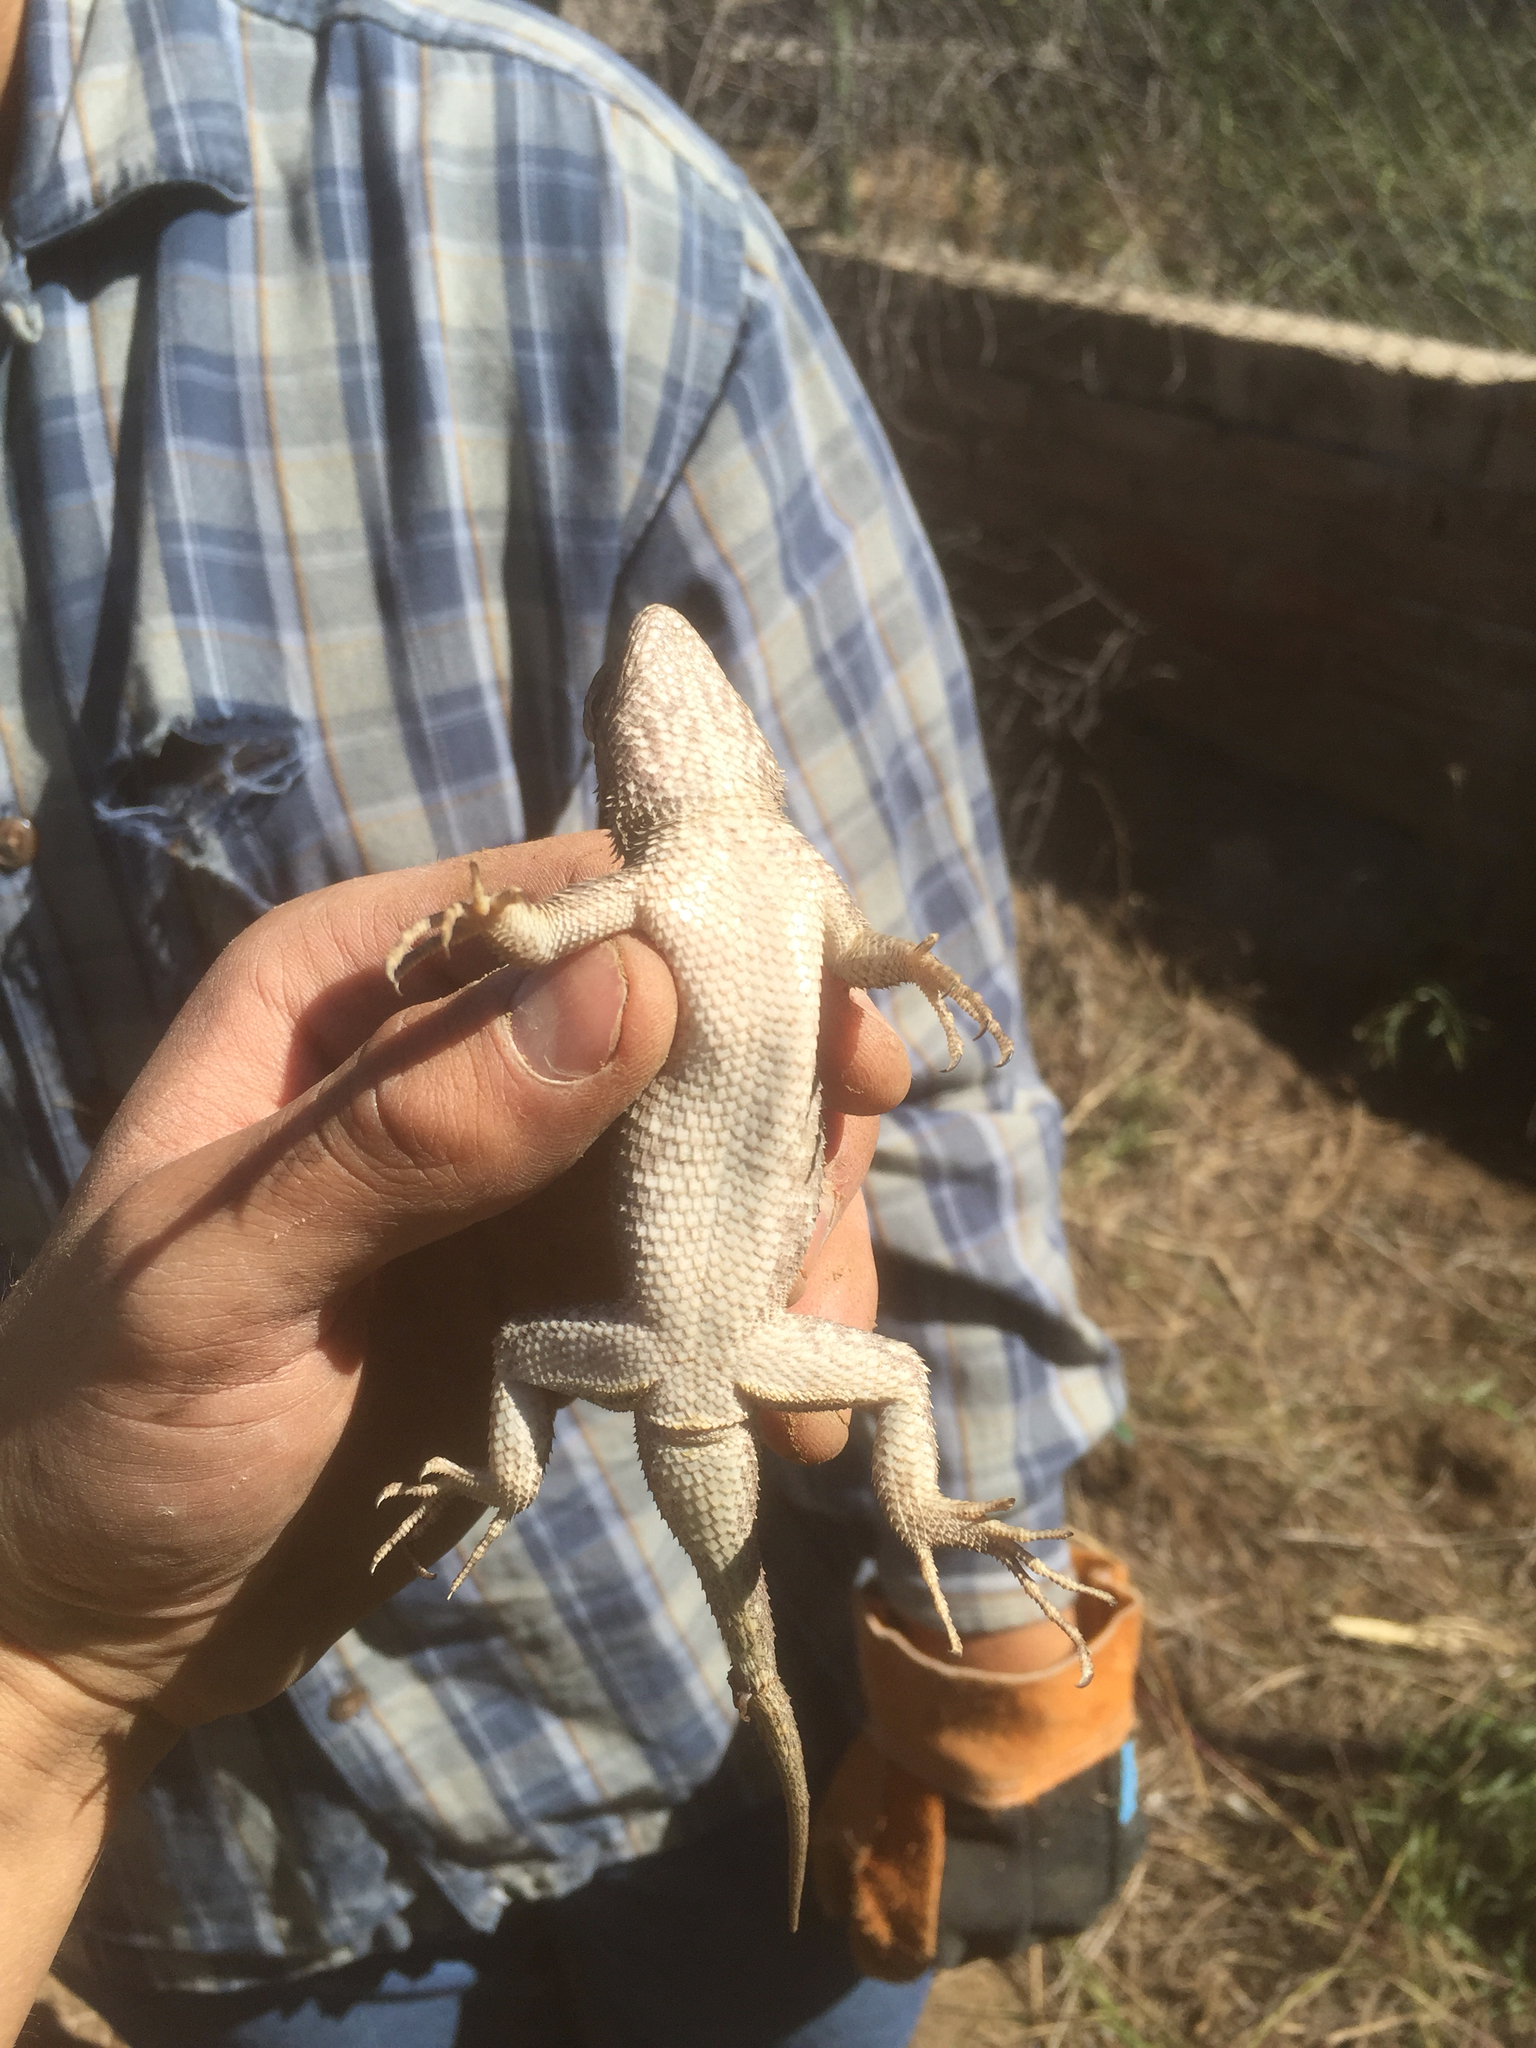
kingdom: Animalia
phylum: Chordata
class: Squamata
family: Phrynosomatidae
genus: Sceloporus
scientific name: Sceloporus clarkii
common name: Clark's spiny lizard
